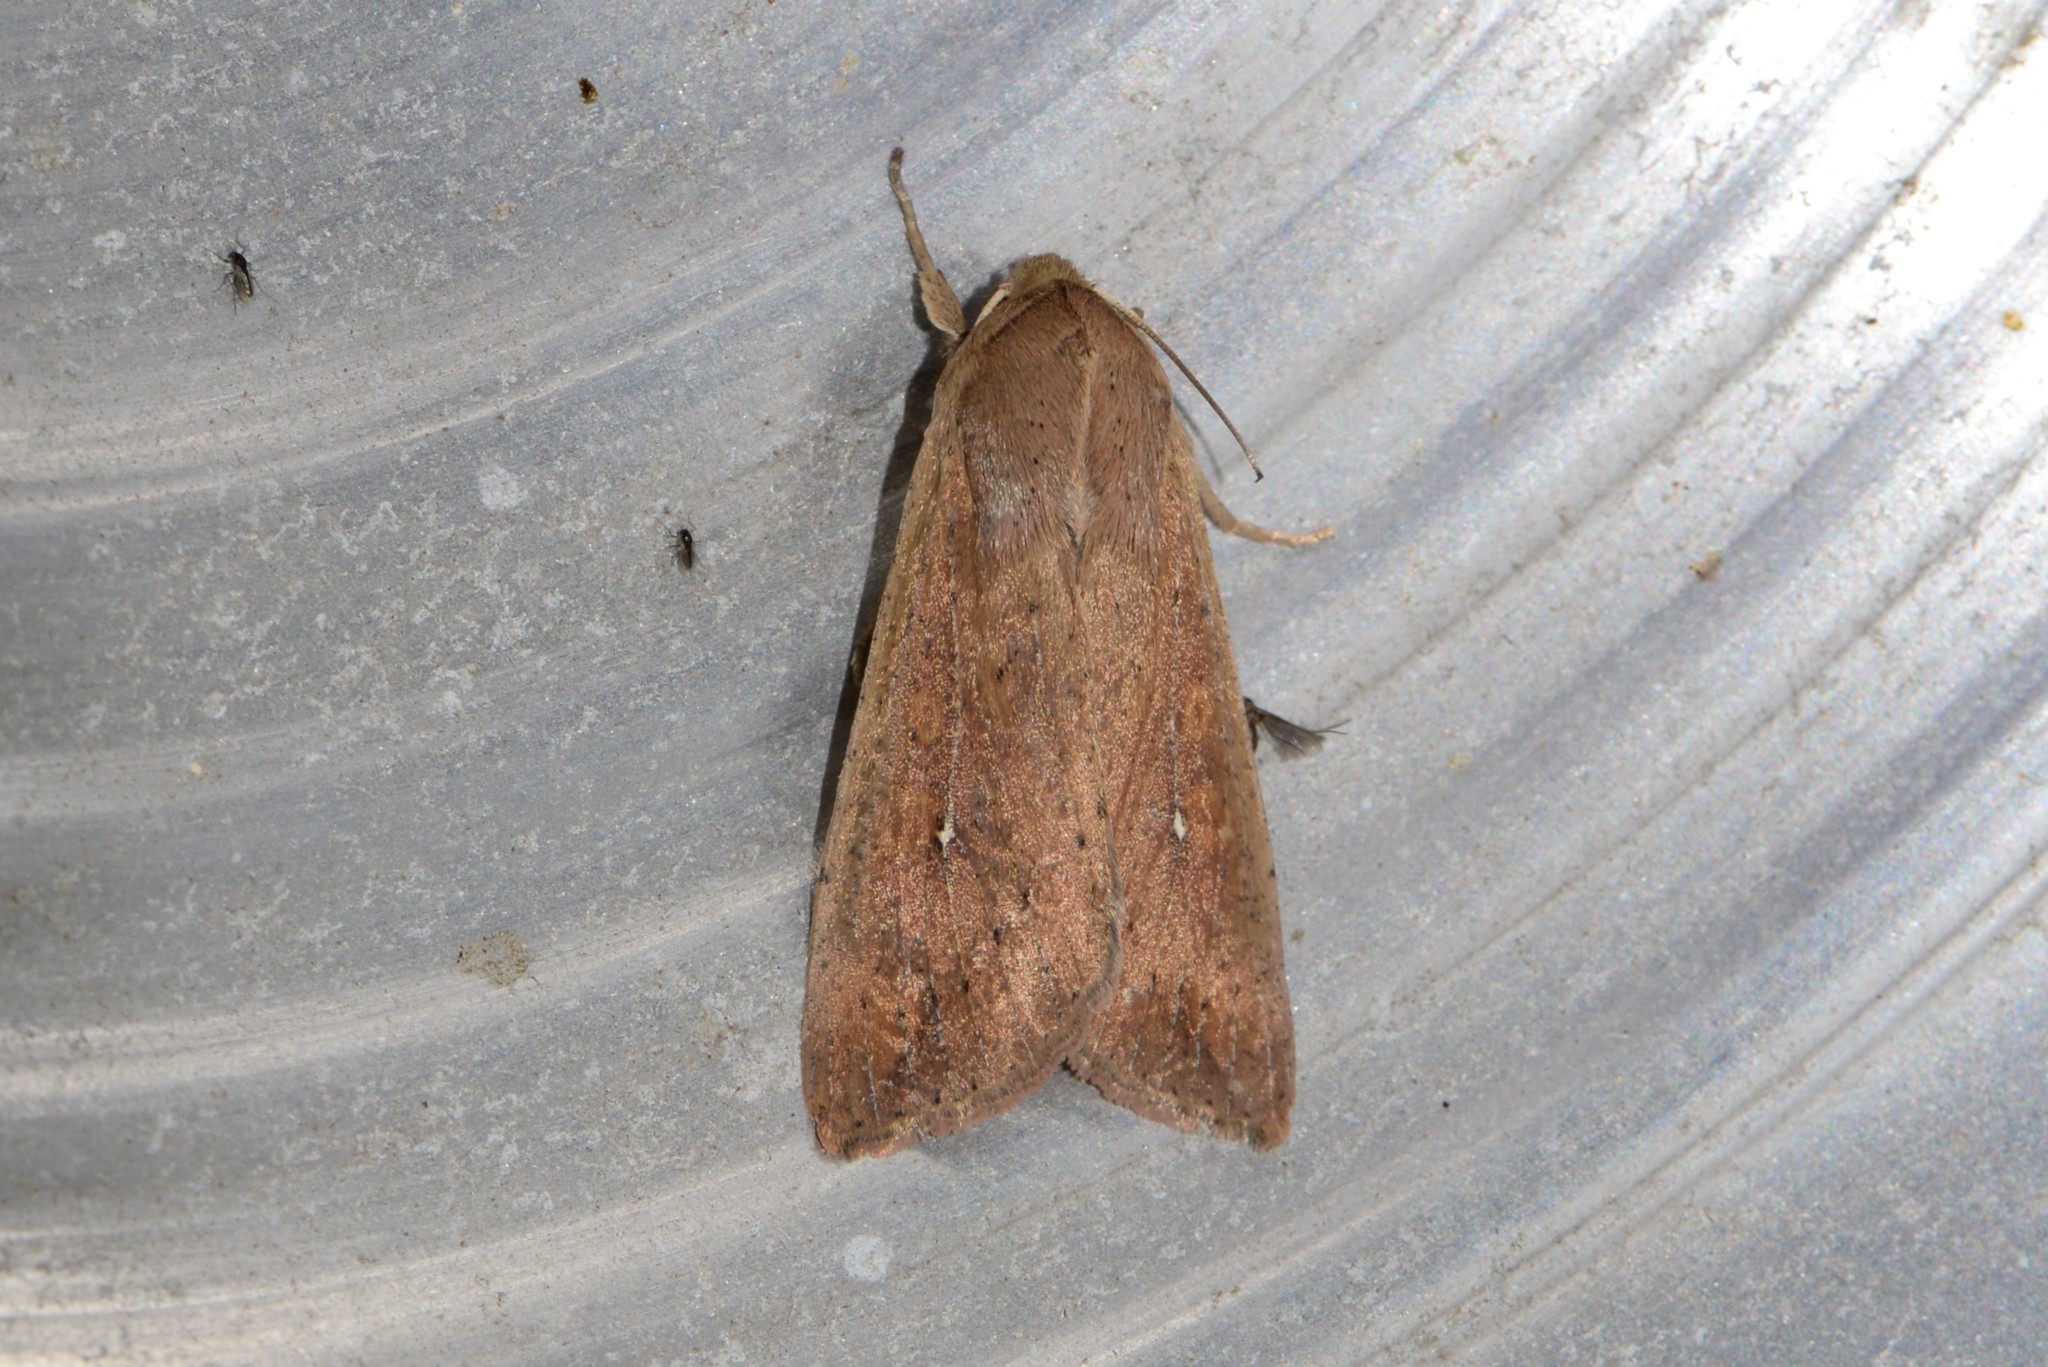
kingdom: Animalia
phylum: Arthropoda
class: Insecta
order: Lepidoptera
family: Noctuidae
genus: Mythimna
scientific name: Mythimna unipuncta
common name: White-speck
